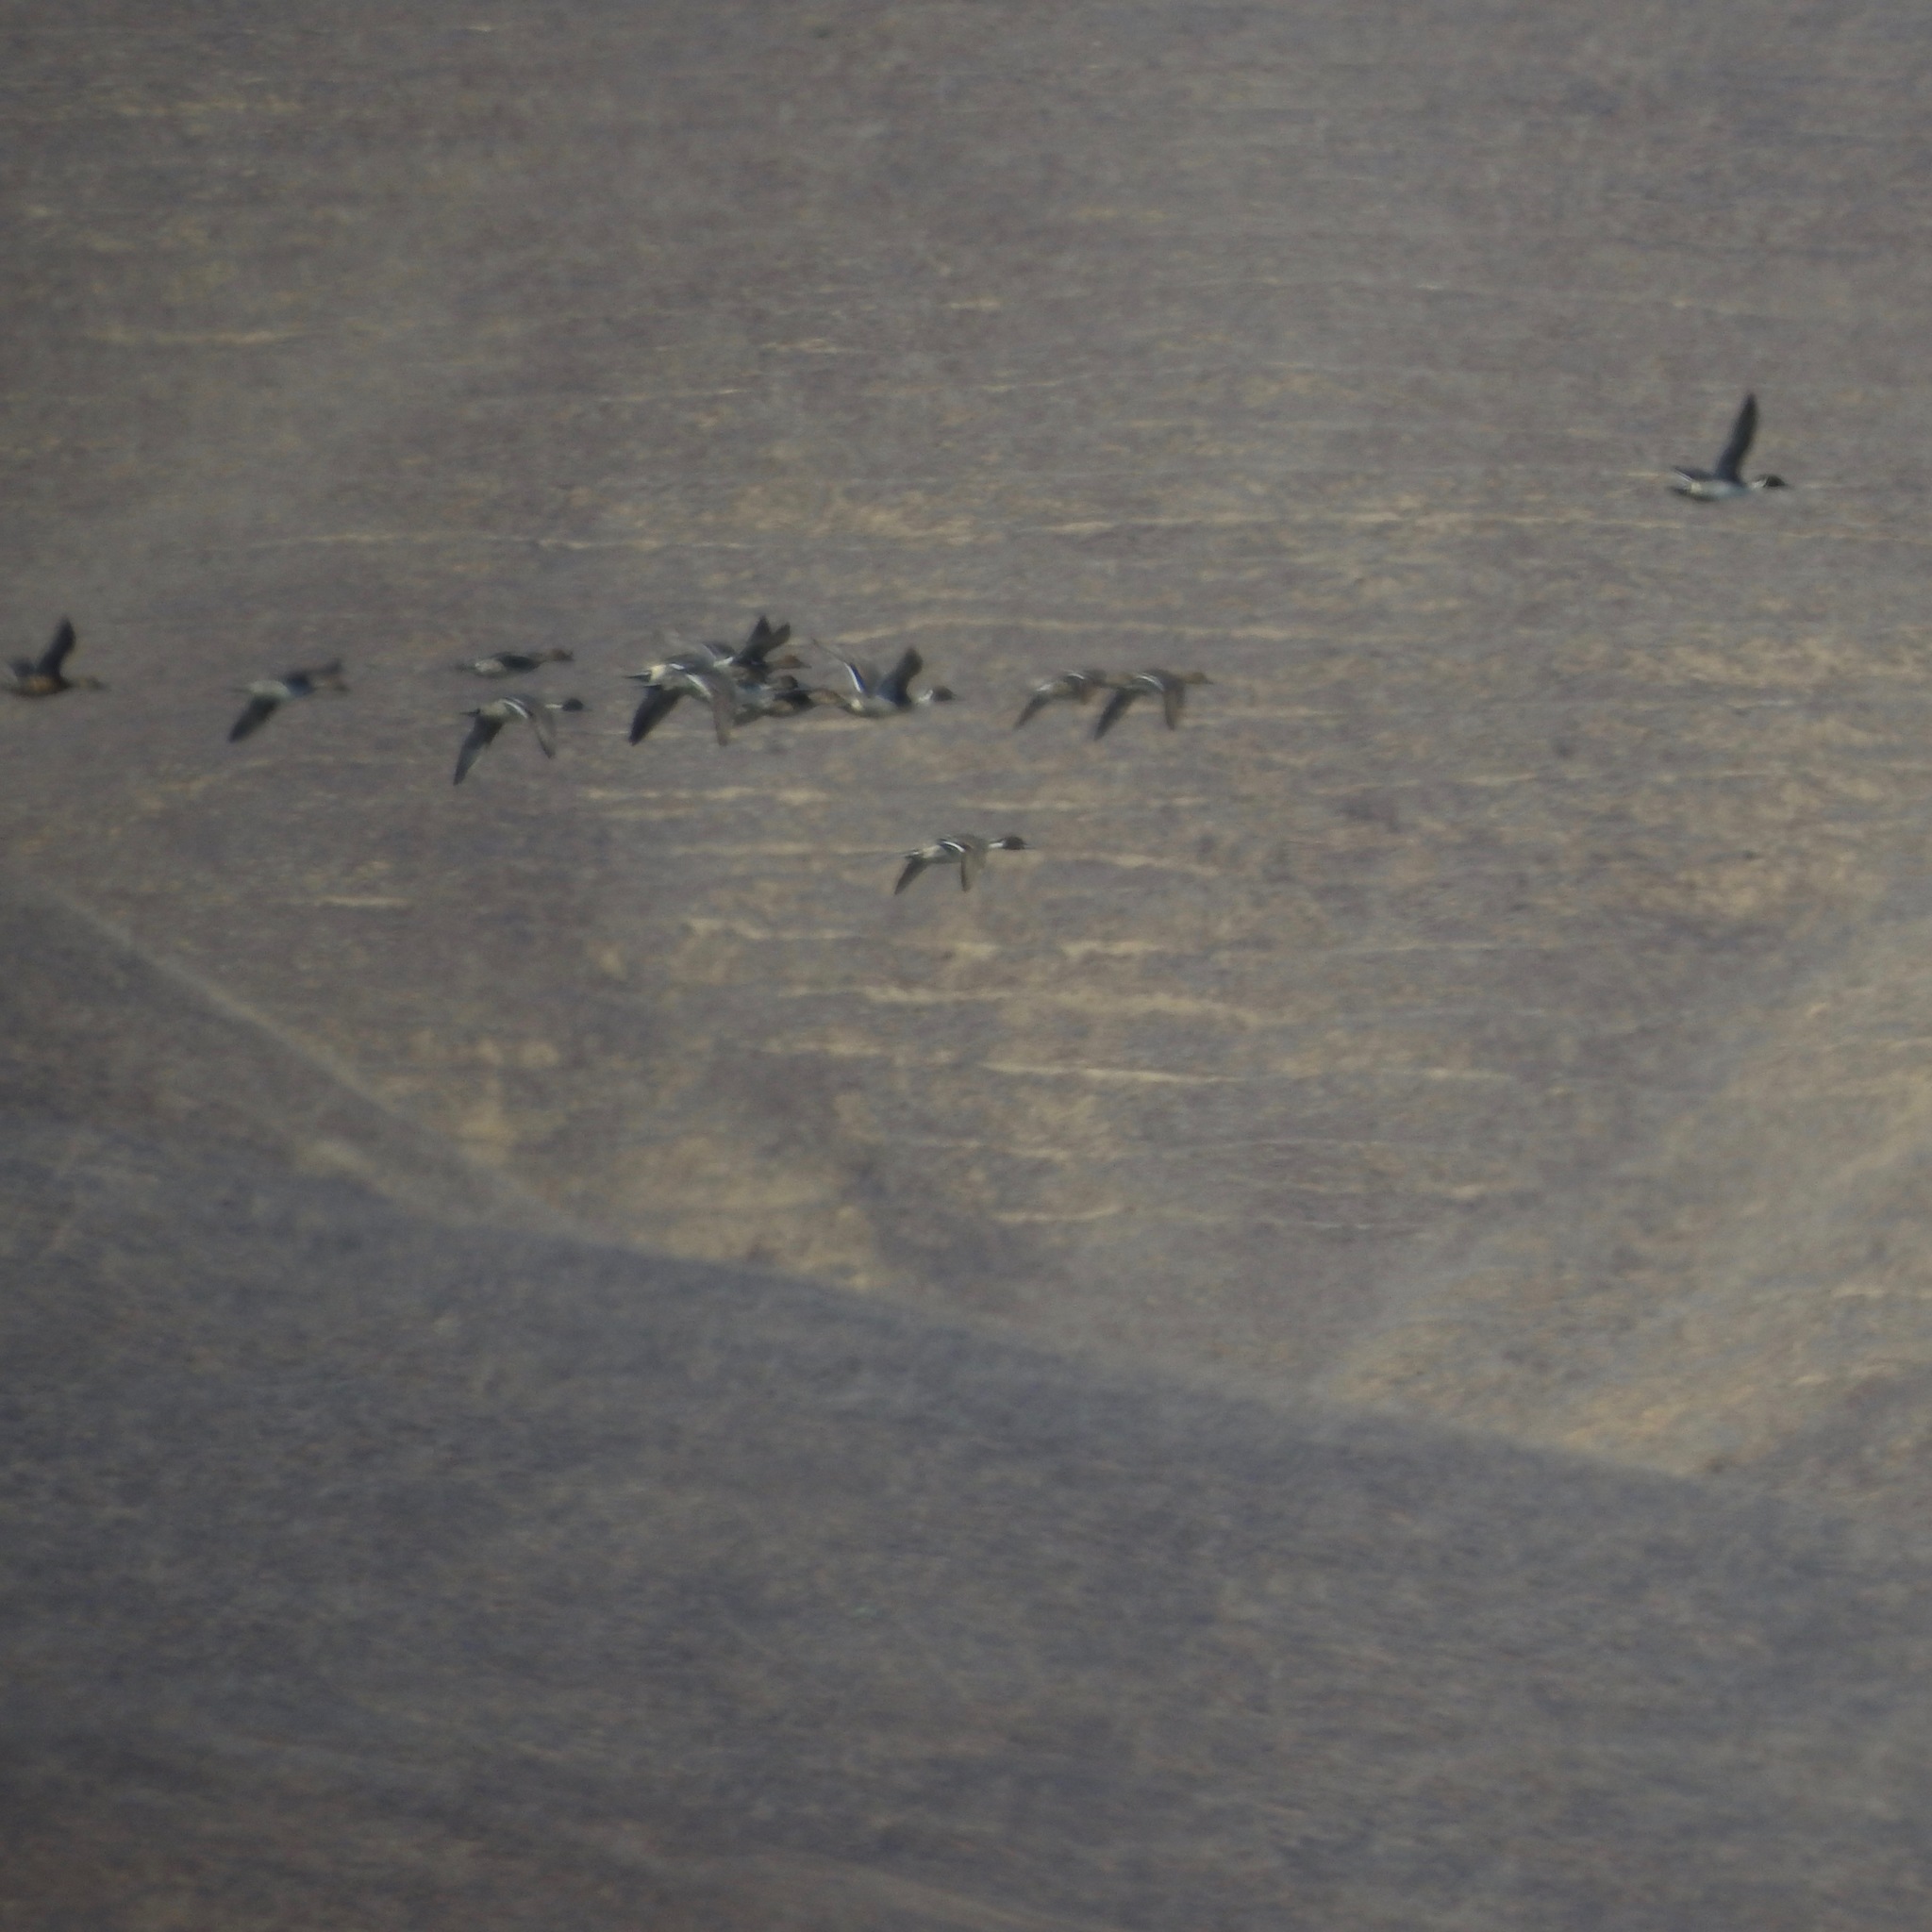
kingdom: Animalia
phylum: Chordata
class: Aves
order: Anseriformes
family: Anatidae
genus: Anas
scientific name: Anas acuta
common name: Northern pintail
